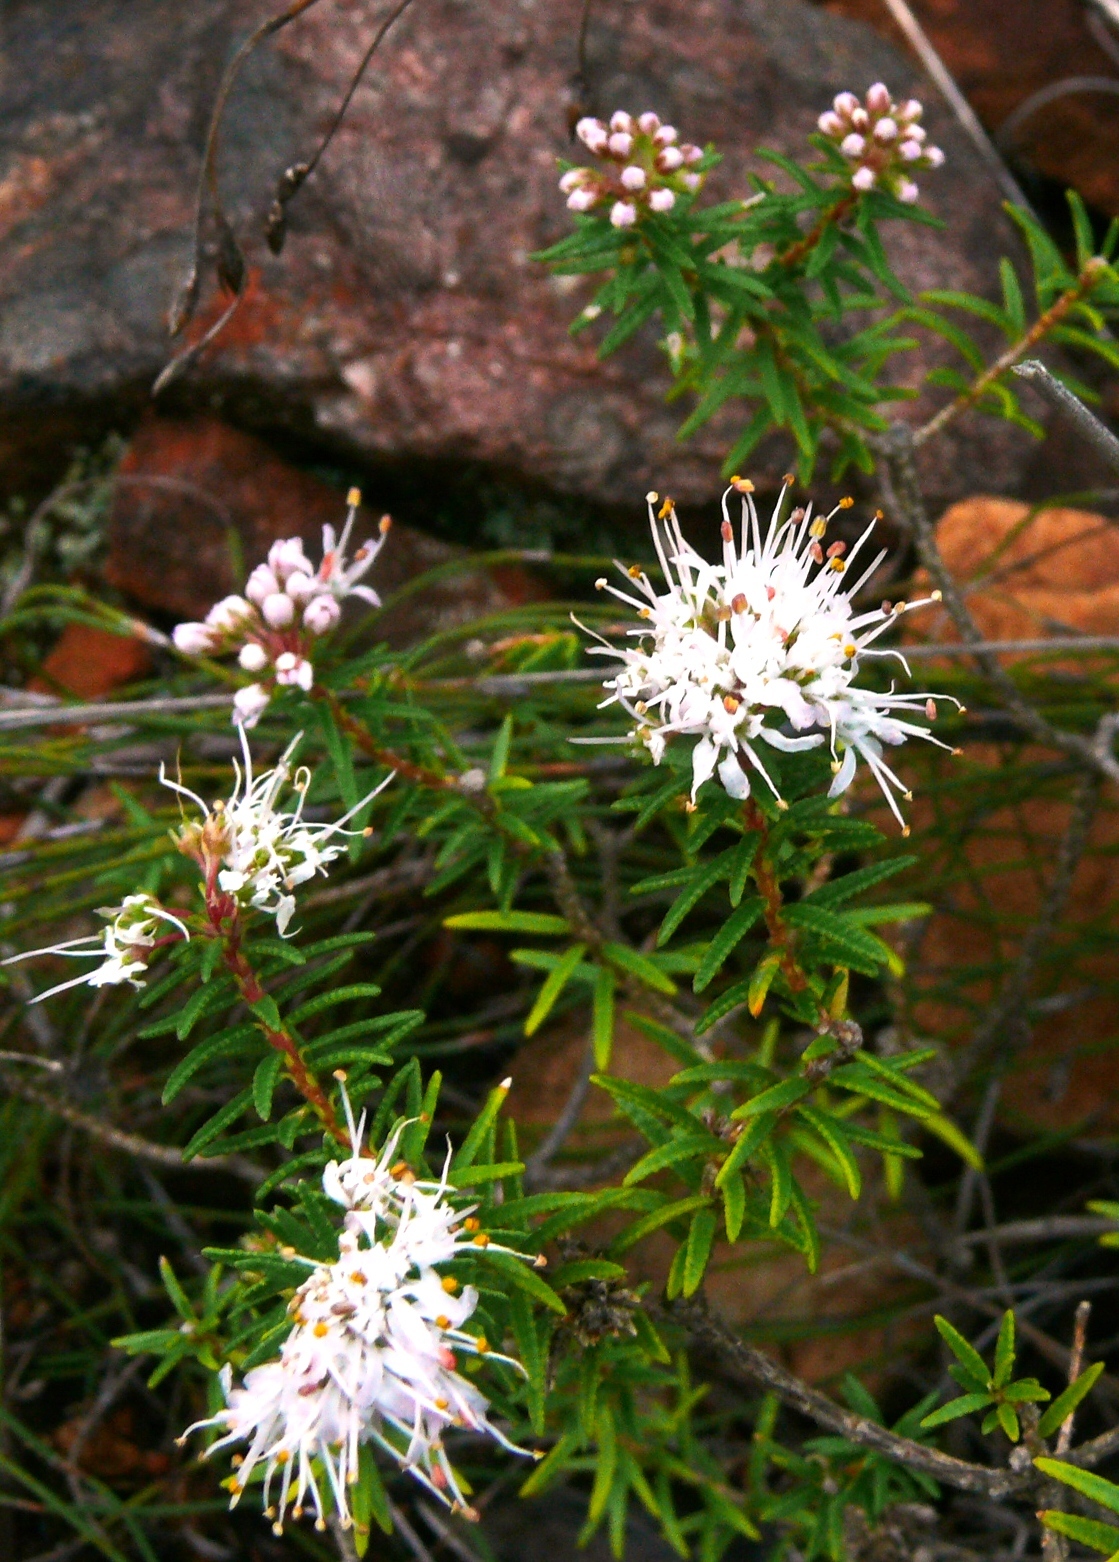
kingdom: Plantae
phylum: Tracheophyta
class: Magnoliopsida
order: Sapindales
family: Rutaceae
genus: Agathosma
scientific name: Agathosma lanceolata
